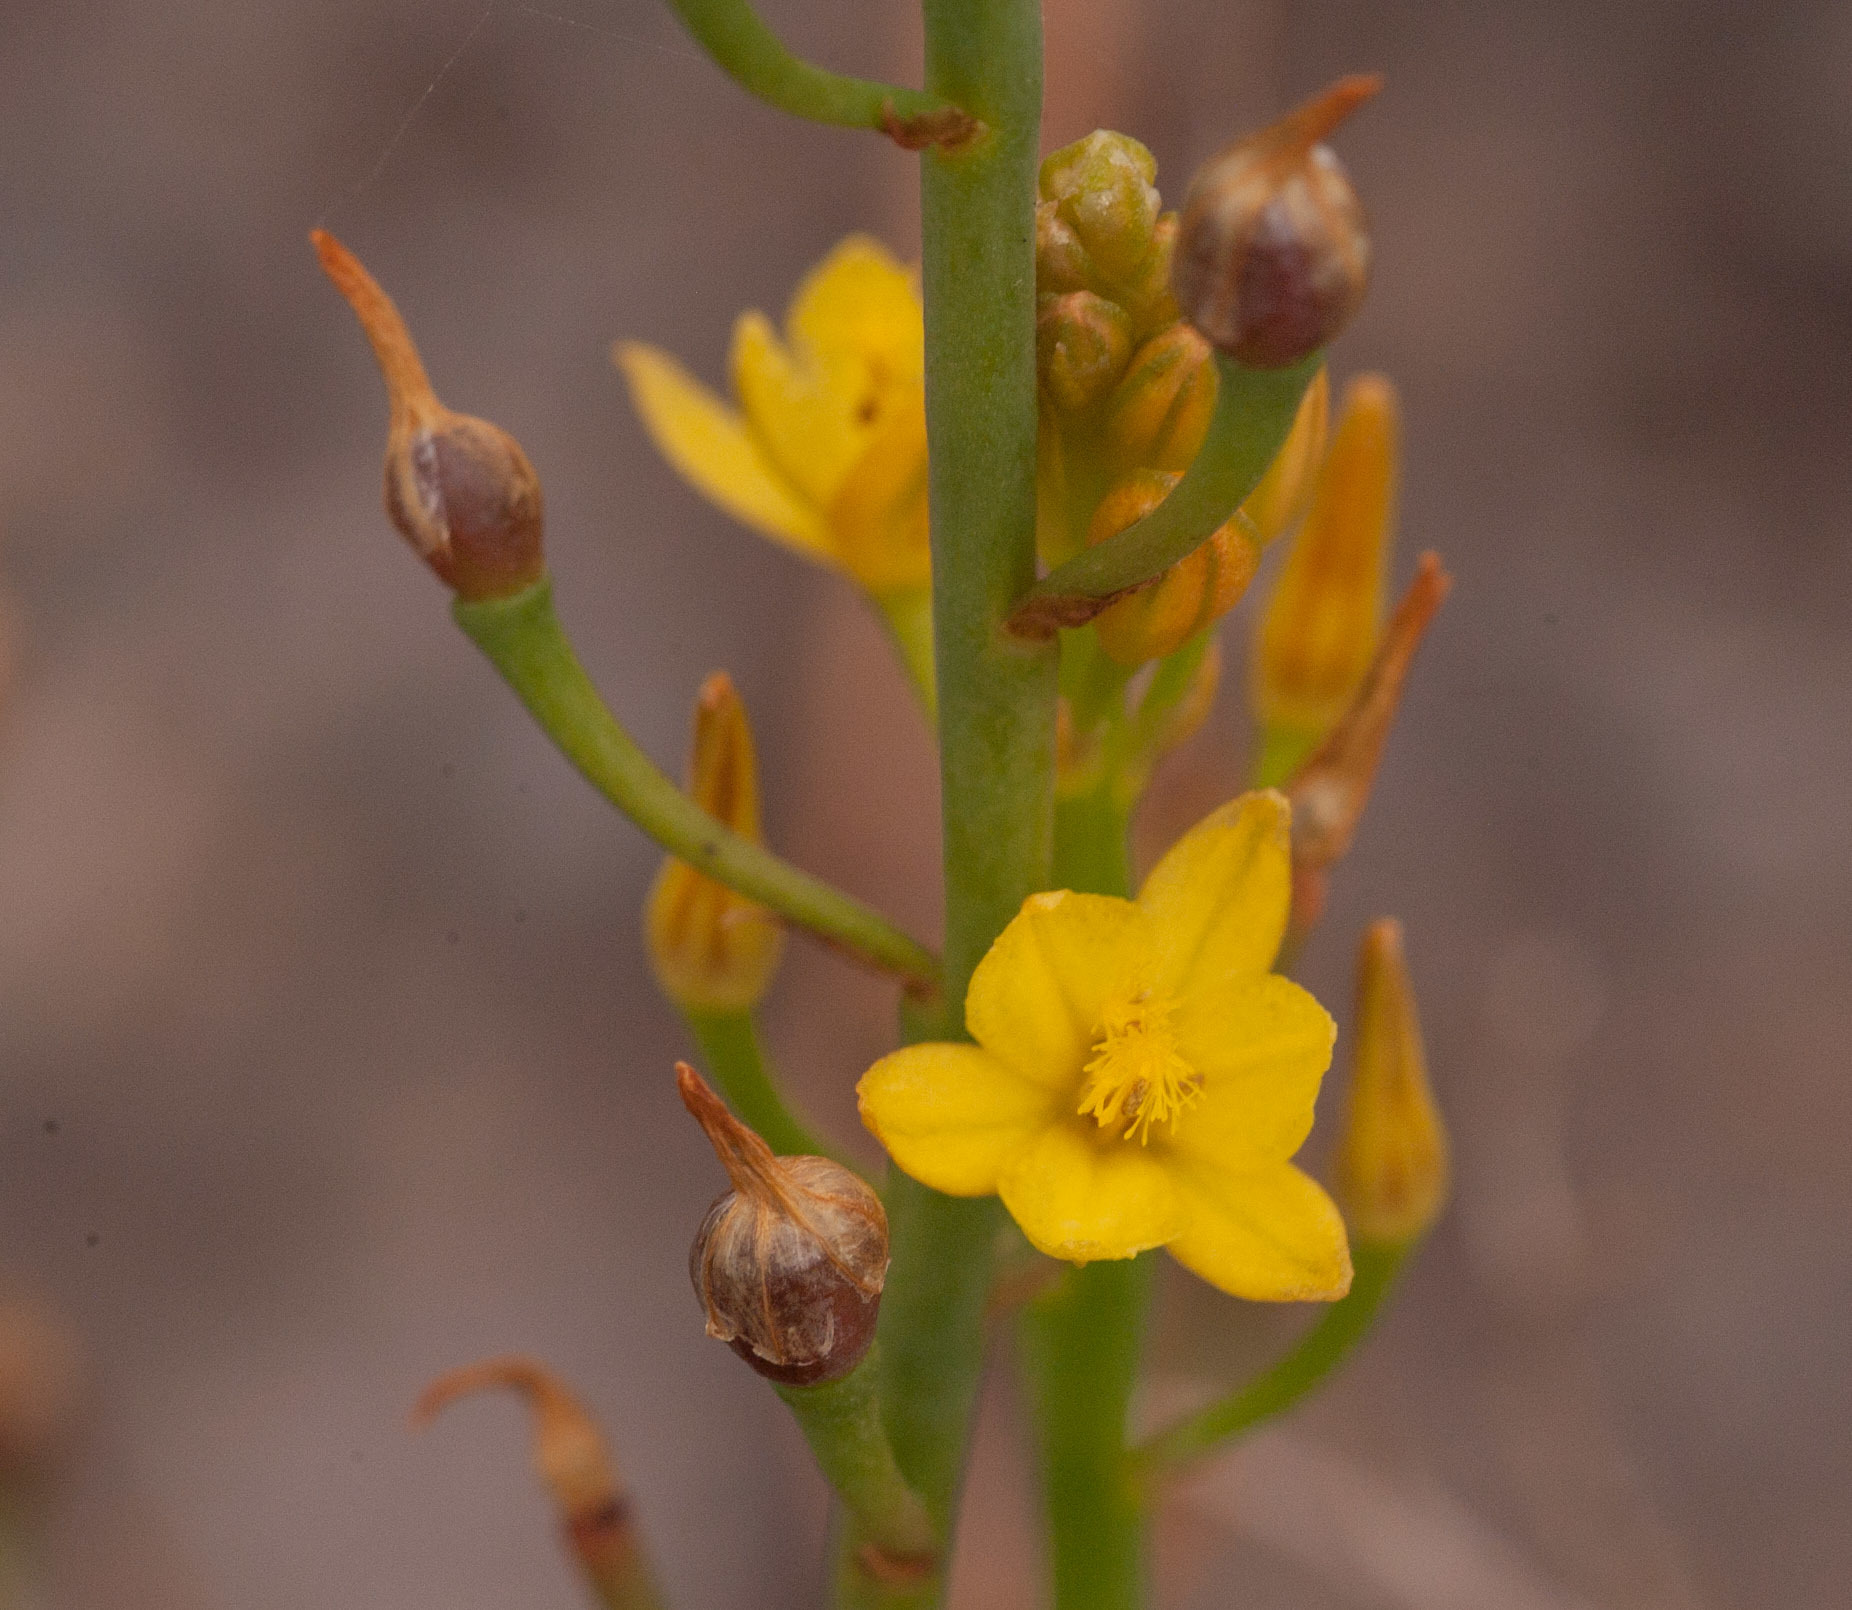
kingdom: Plantae
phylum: Tracheophyta
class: Liliopsida
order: Asparagales
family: Asphodelaceae
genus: Bulbine
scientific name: Bulbine bulbosa
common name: Golden-lily
